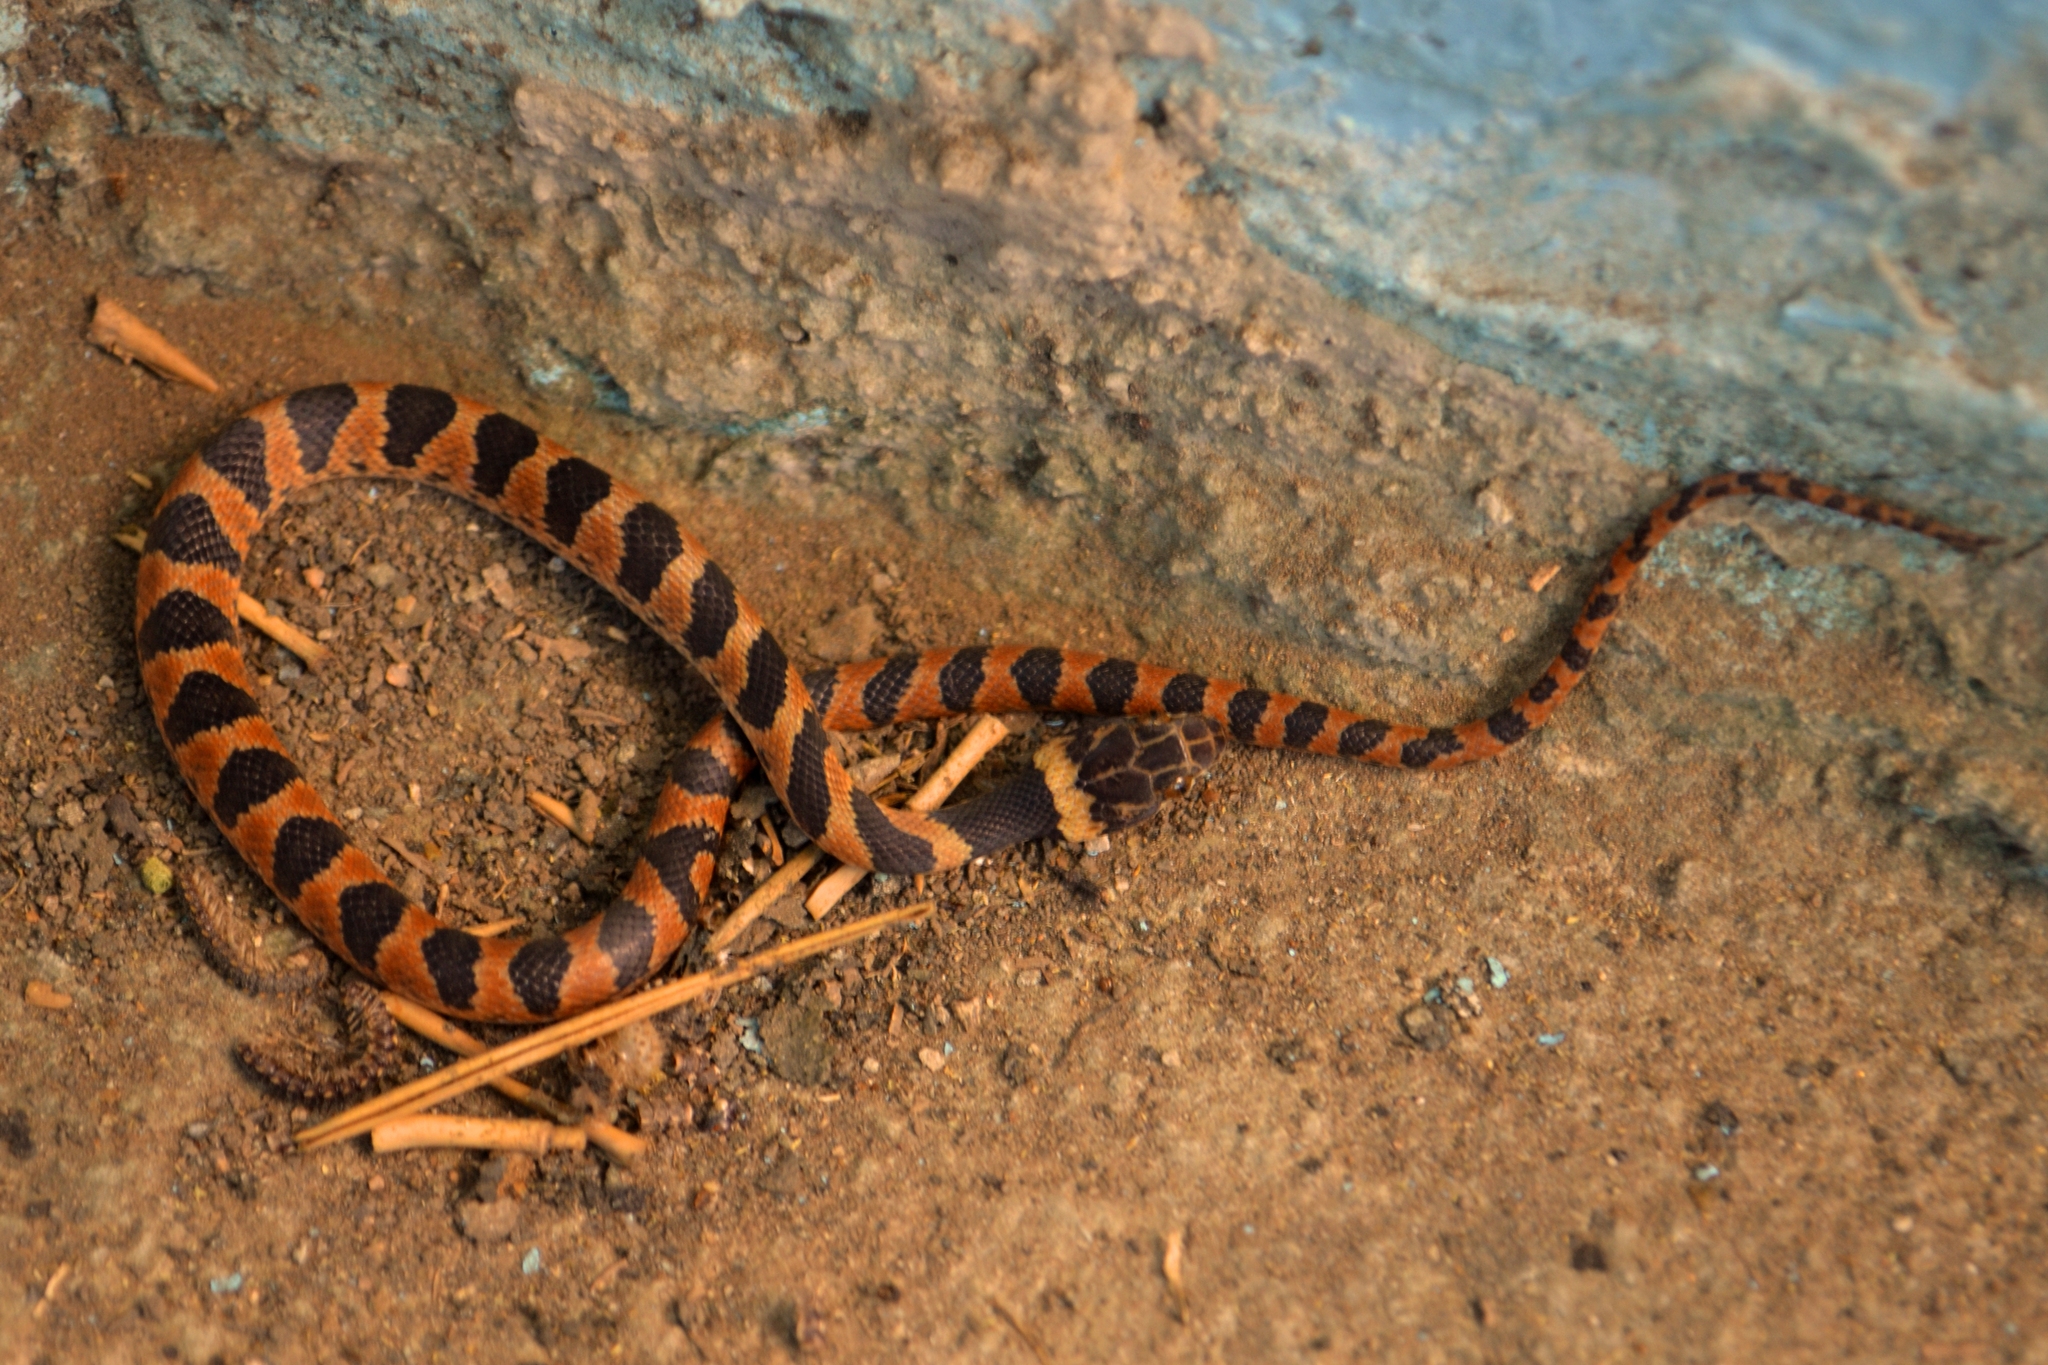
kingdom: Animalia
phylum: Chordata
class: Squamata
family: Colubridae
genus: Leptodeira
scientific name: Leptodeira annulata
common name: Banded cat-eyed snake
